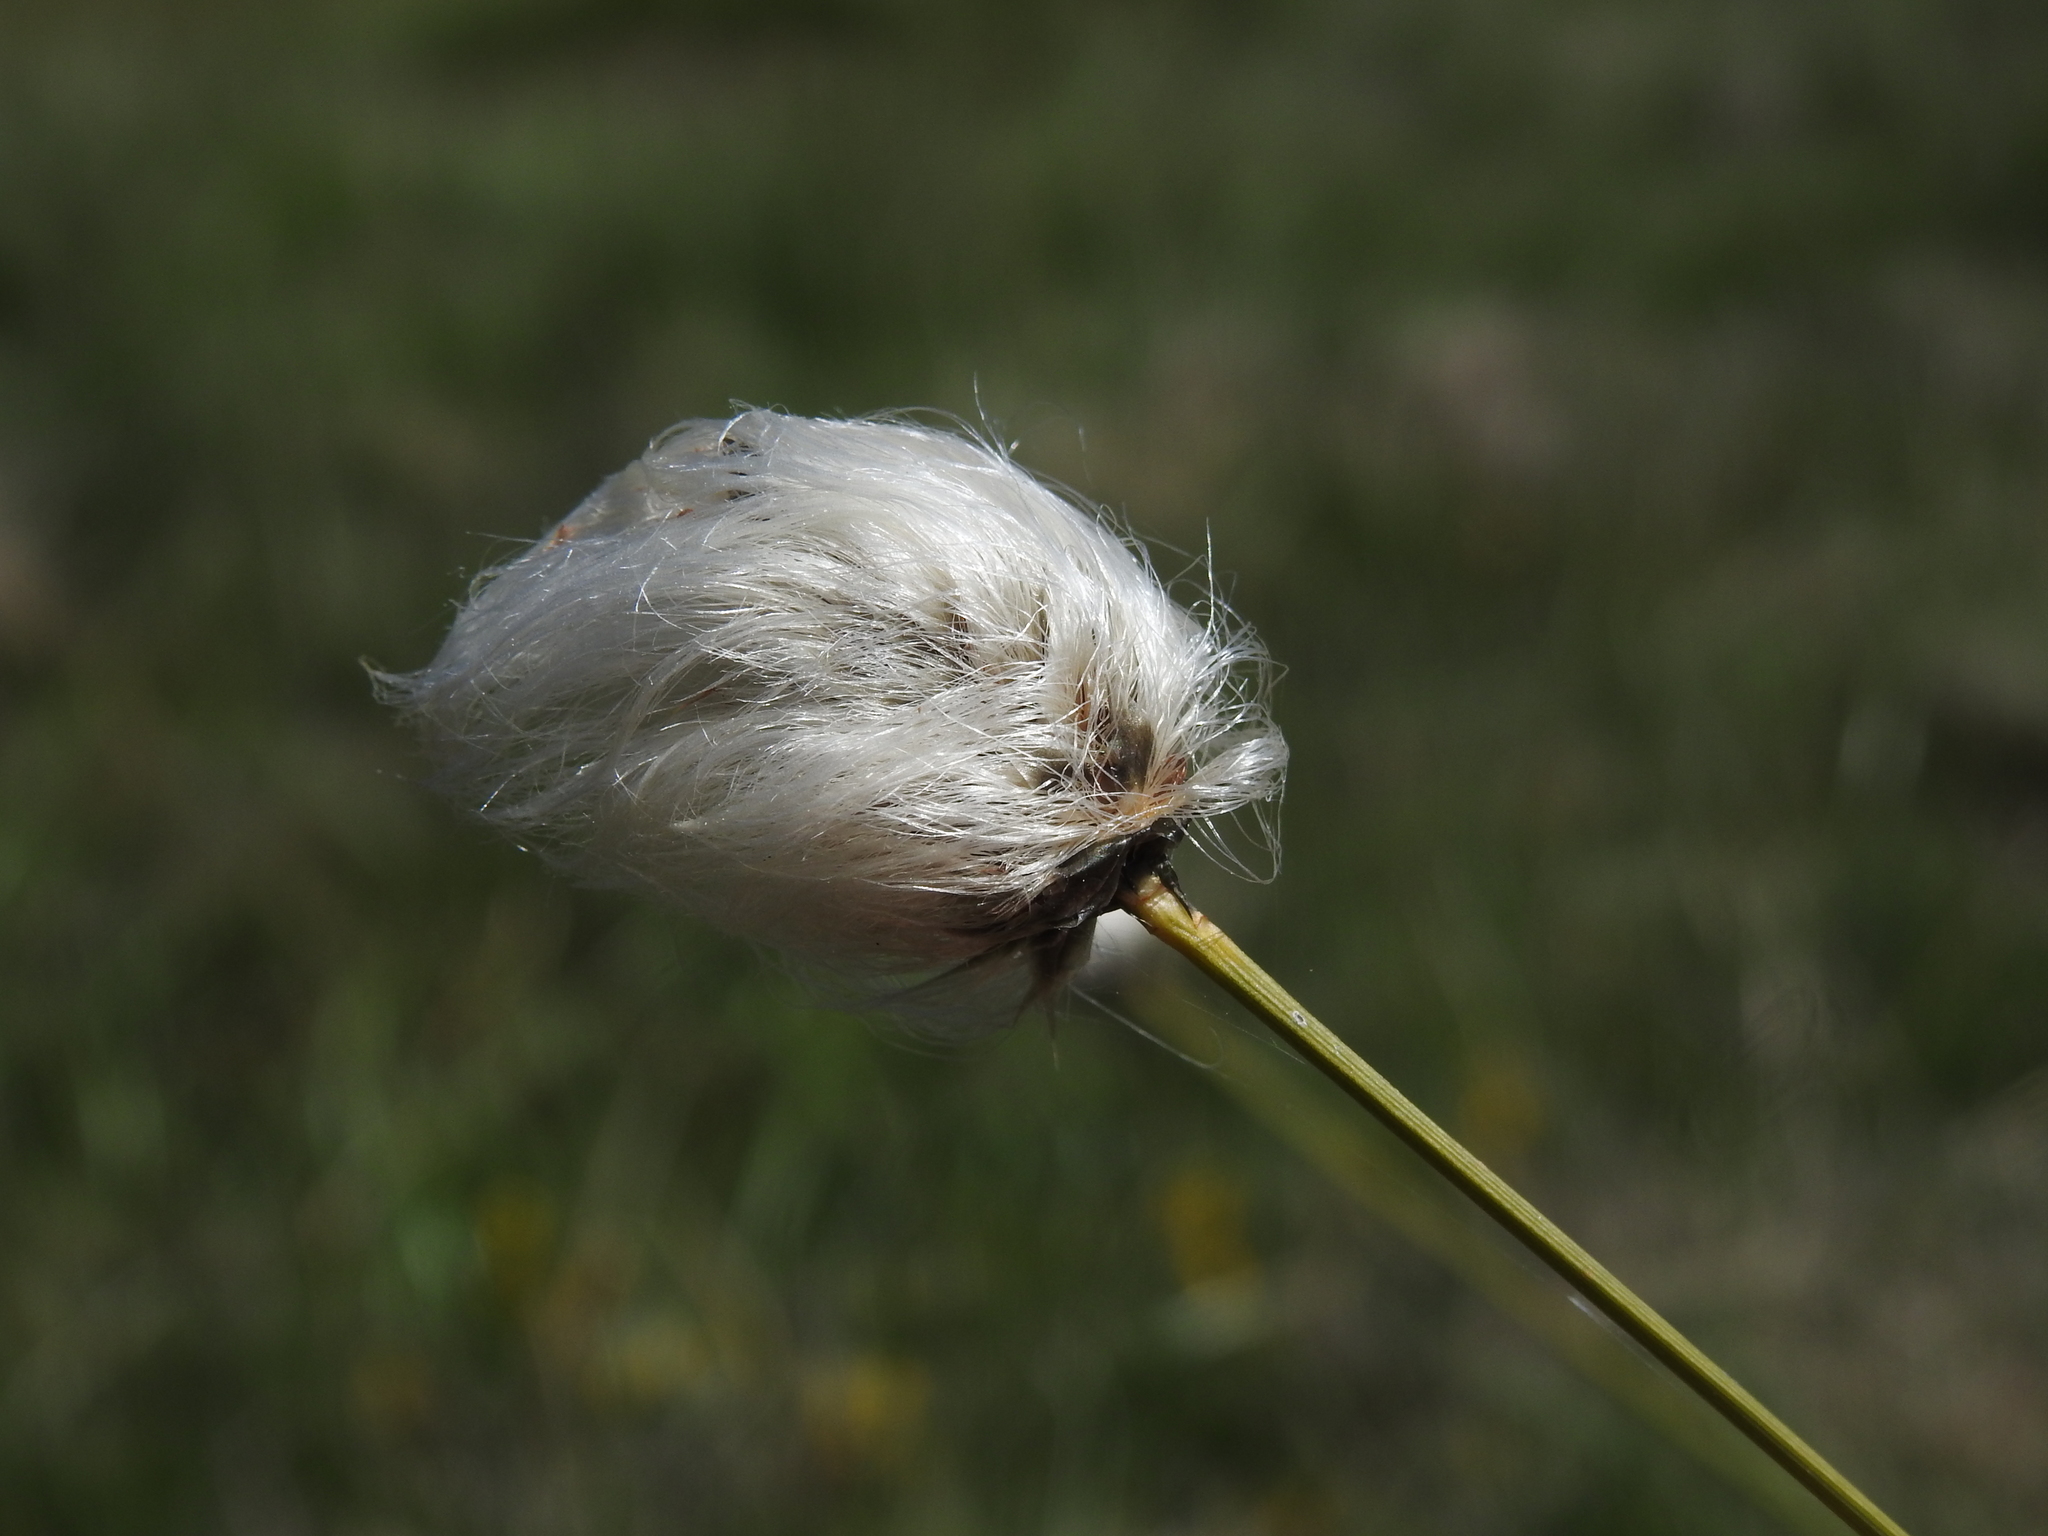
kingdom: Plantae
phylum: Tracheophyta
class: Liliopsida
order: Poales
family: Cyperaceae
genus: Eriophorum
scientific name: Eriophorum vaginatum
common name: Hare's-tail cottongrass
